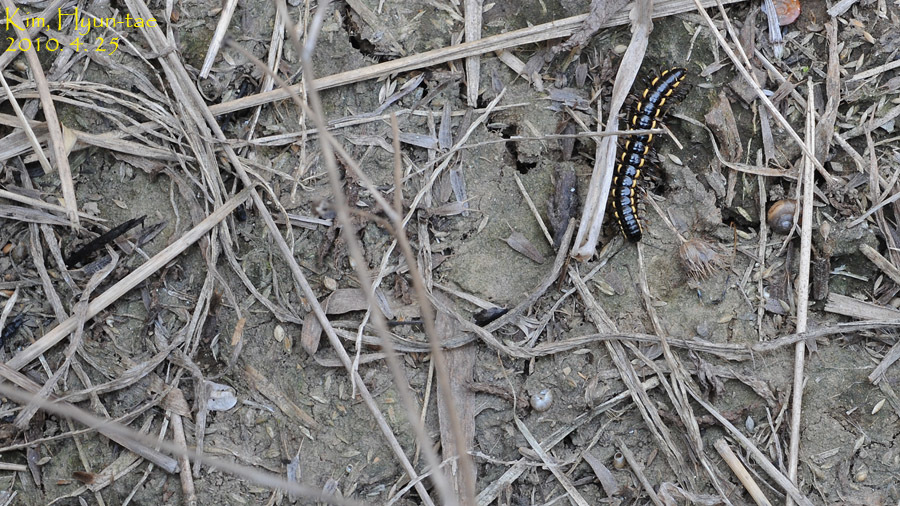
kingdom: Animalia
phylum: Arthropoda
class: Diplopoda
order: Polydesmida
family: Paradoxosomatidae
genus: Orthomorphella
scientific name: Orthomorphella pekuensis
